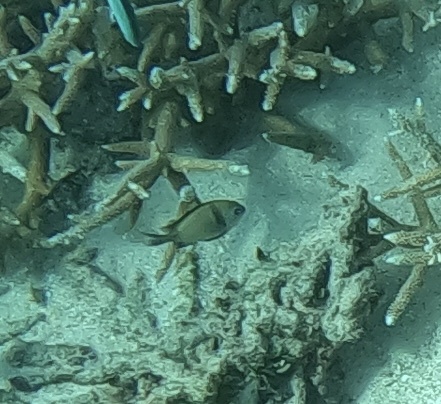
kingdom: Animalia
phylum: Chordata
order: Perciformes
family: Pomacentridae
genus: Dascyllus
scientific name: Dascyllus reticulatus
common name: Reticulated dascyllus
